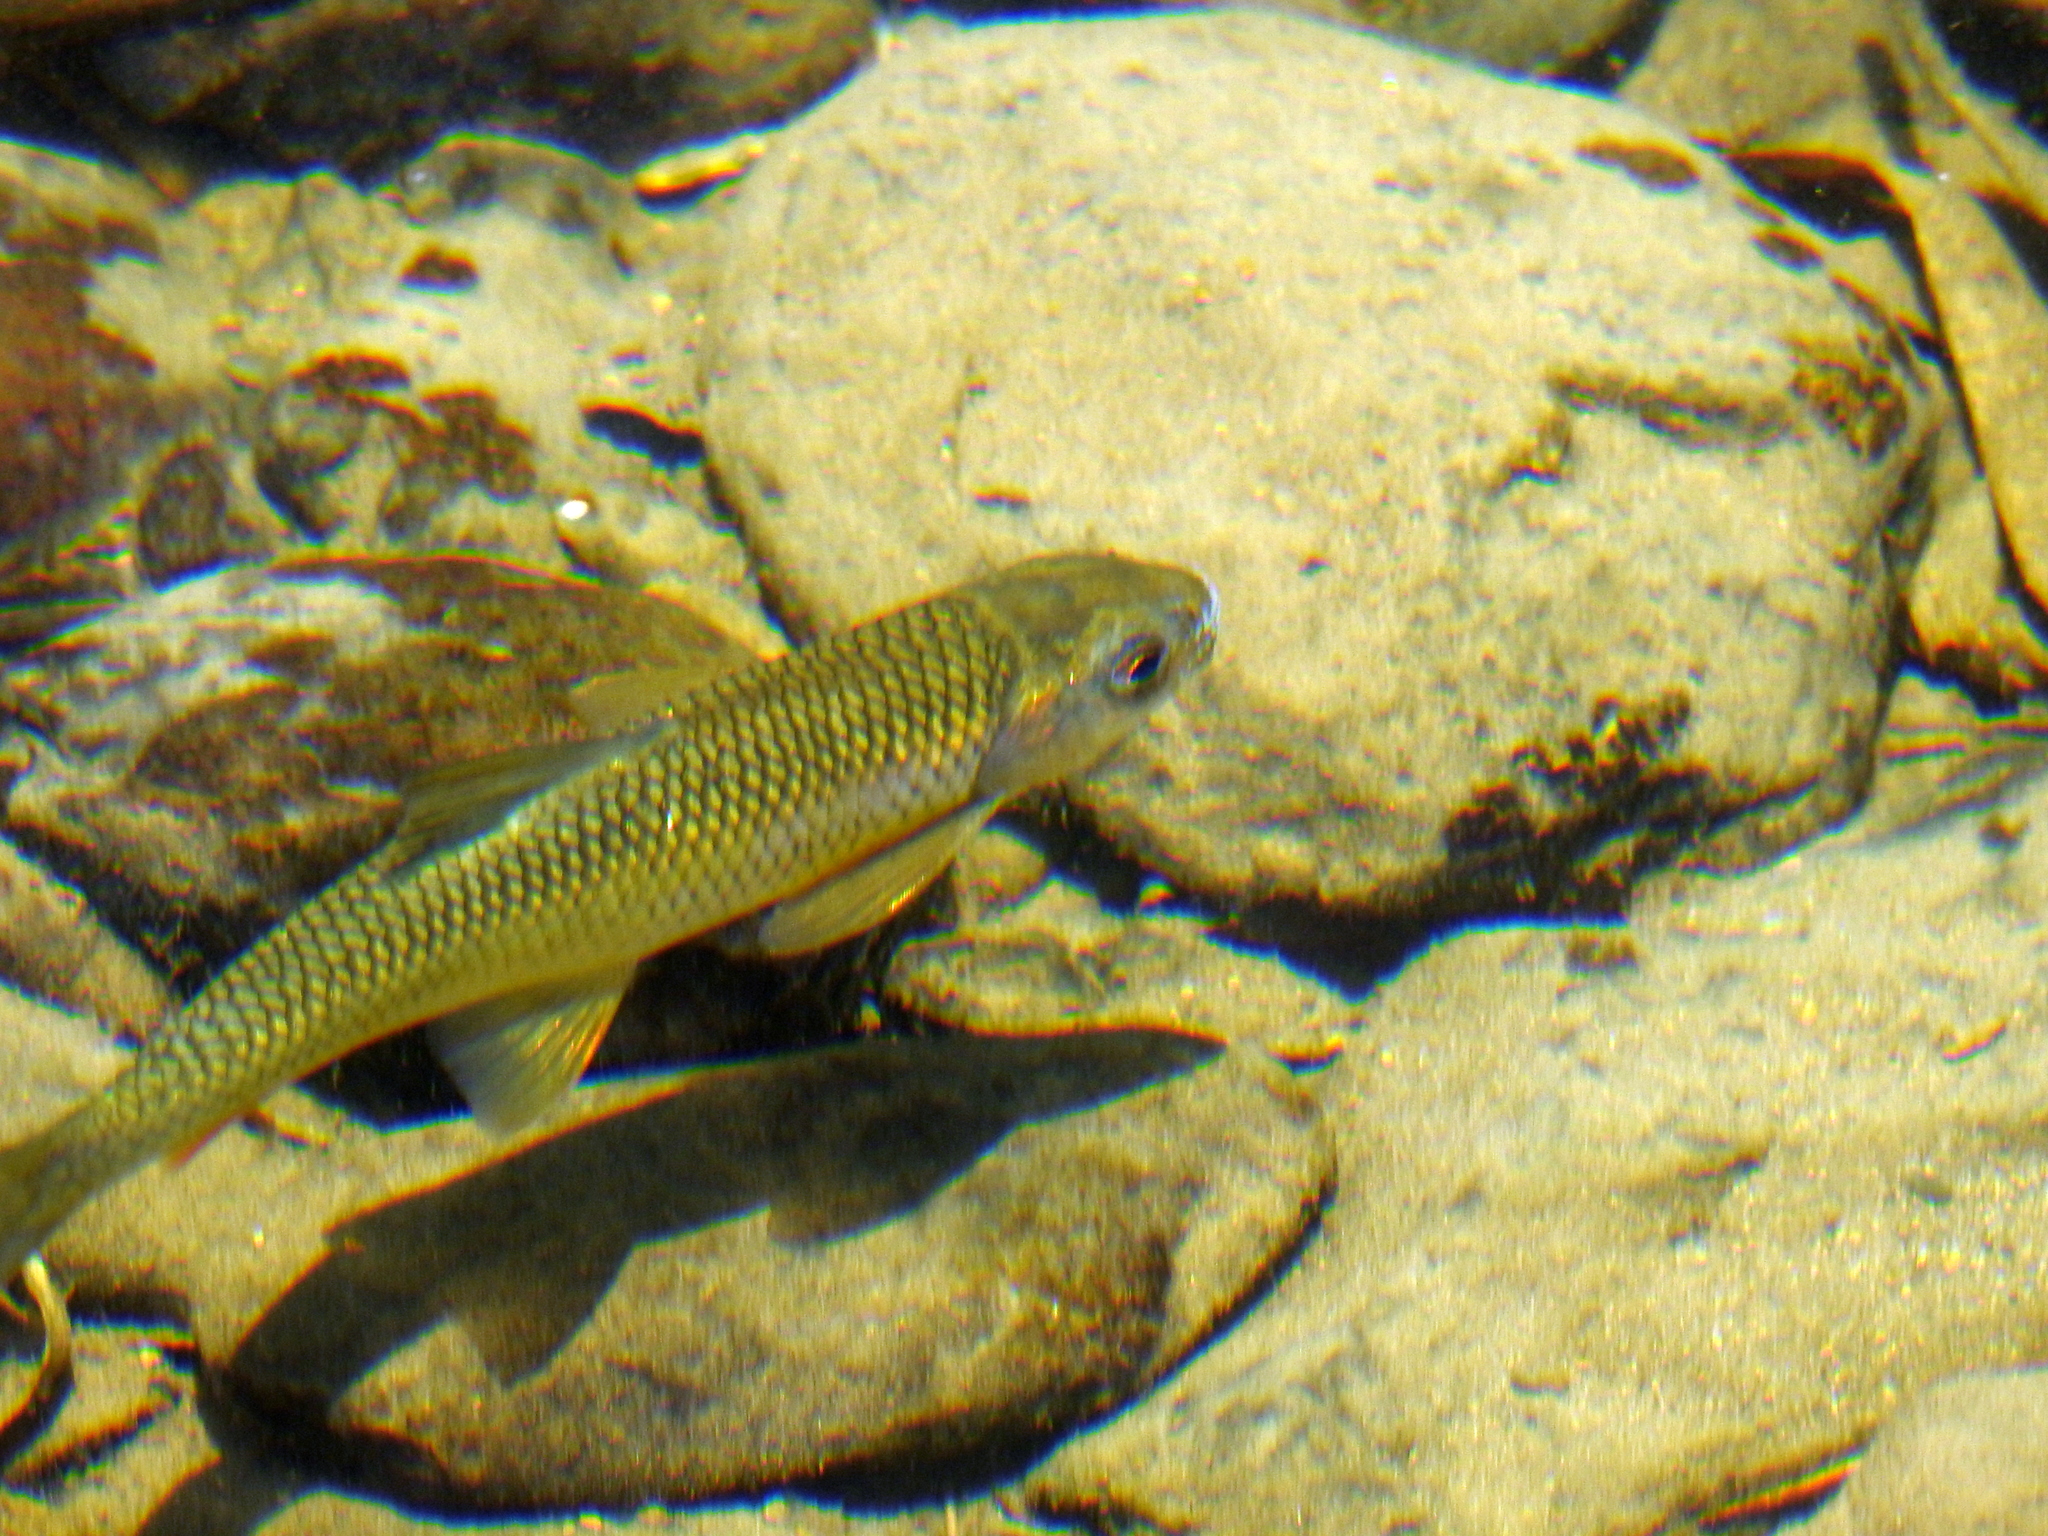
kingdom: Animalia
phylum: Chordata
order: Cypriniformes
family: Cyprinidae
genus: Onychostoma
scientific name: Onychostoma barbatulum
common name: Taiwan shoveljaw carp
